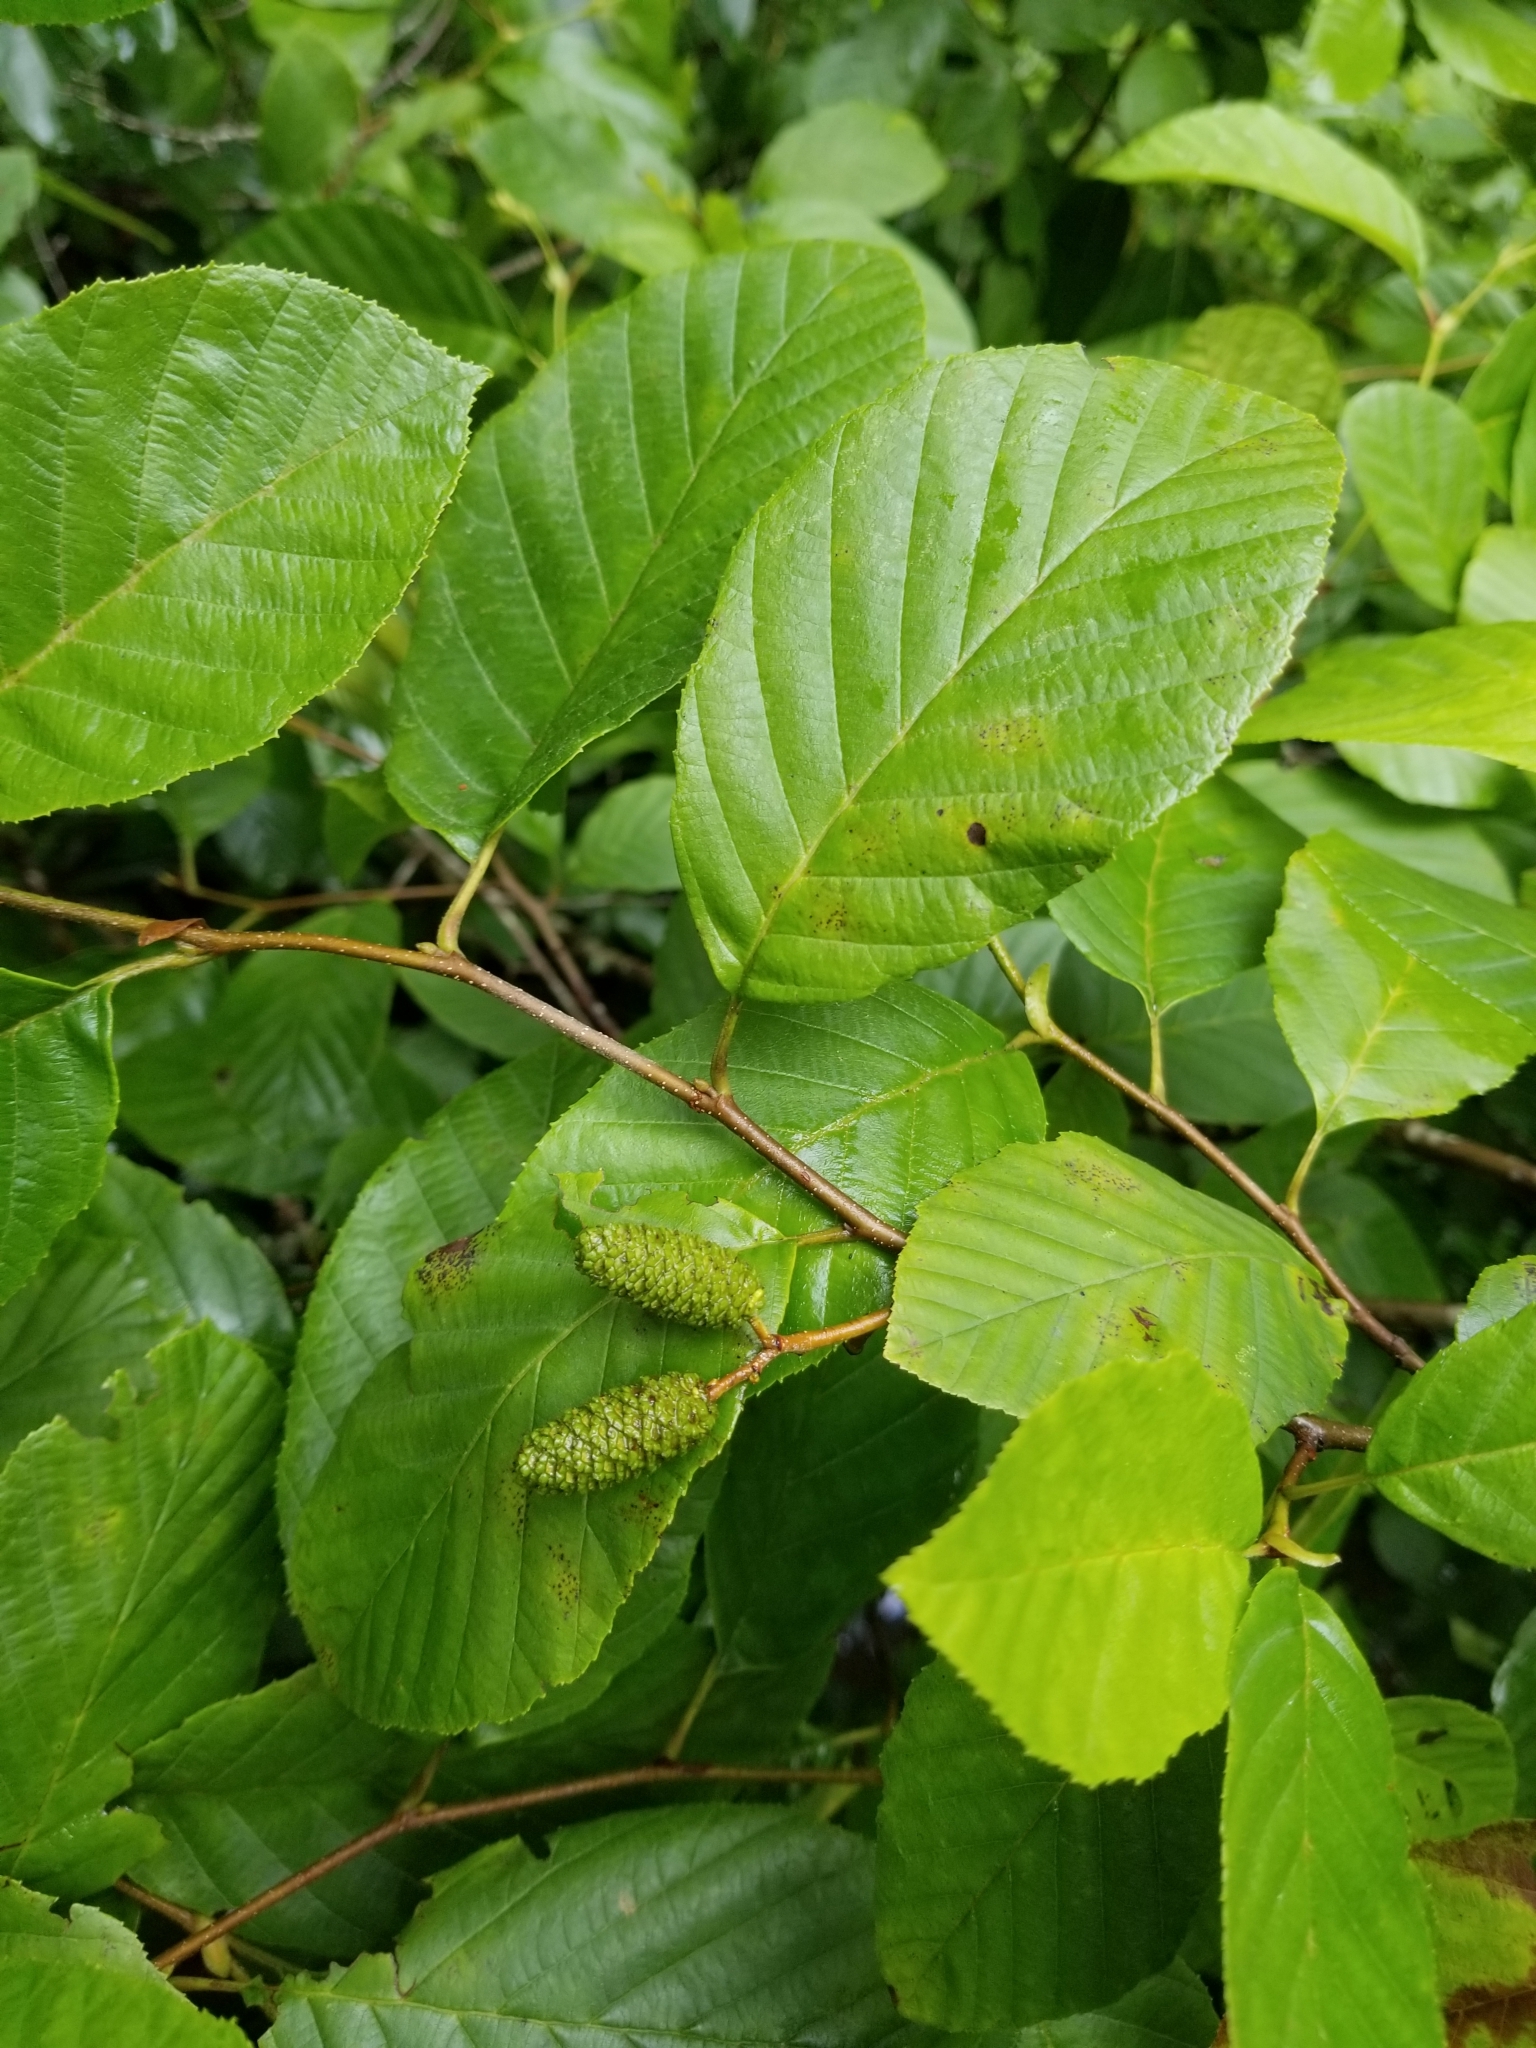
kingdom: Plantae
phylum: Tracheophyta
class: Magnoliopsida
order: Fagales
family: Betulaceae
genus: Alnus
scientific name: Alnus serrulata
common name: Hazel alder
